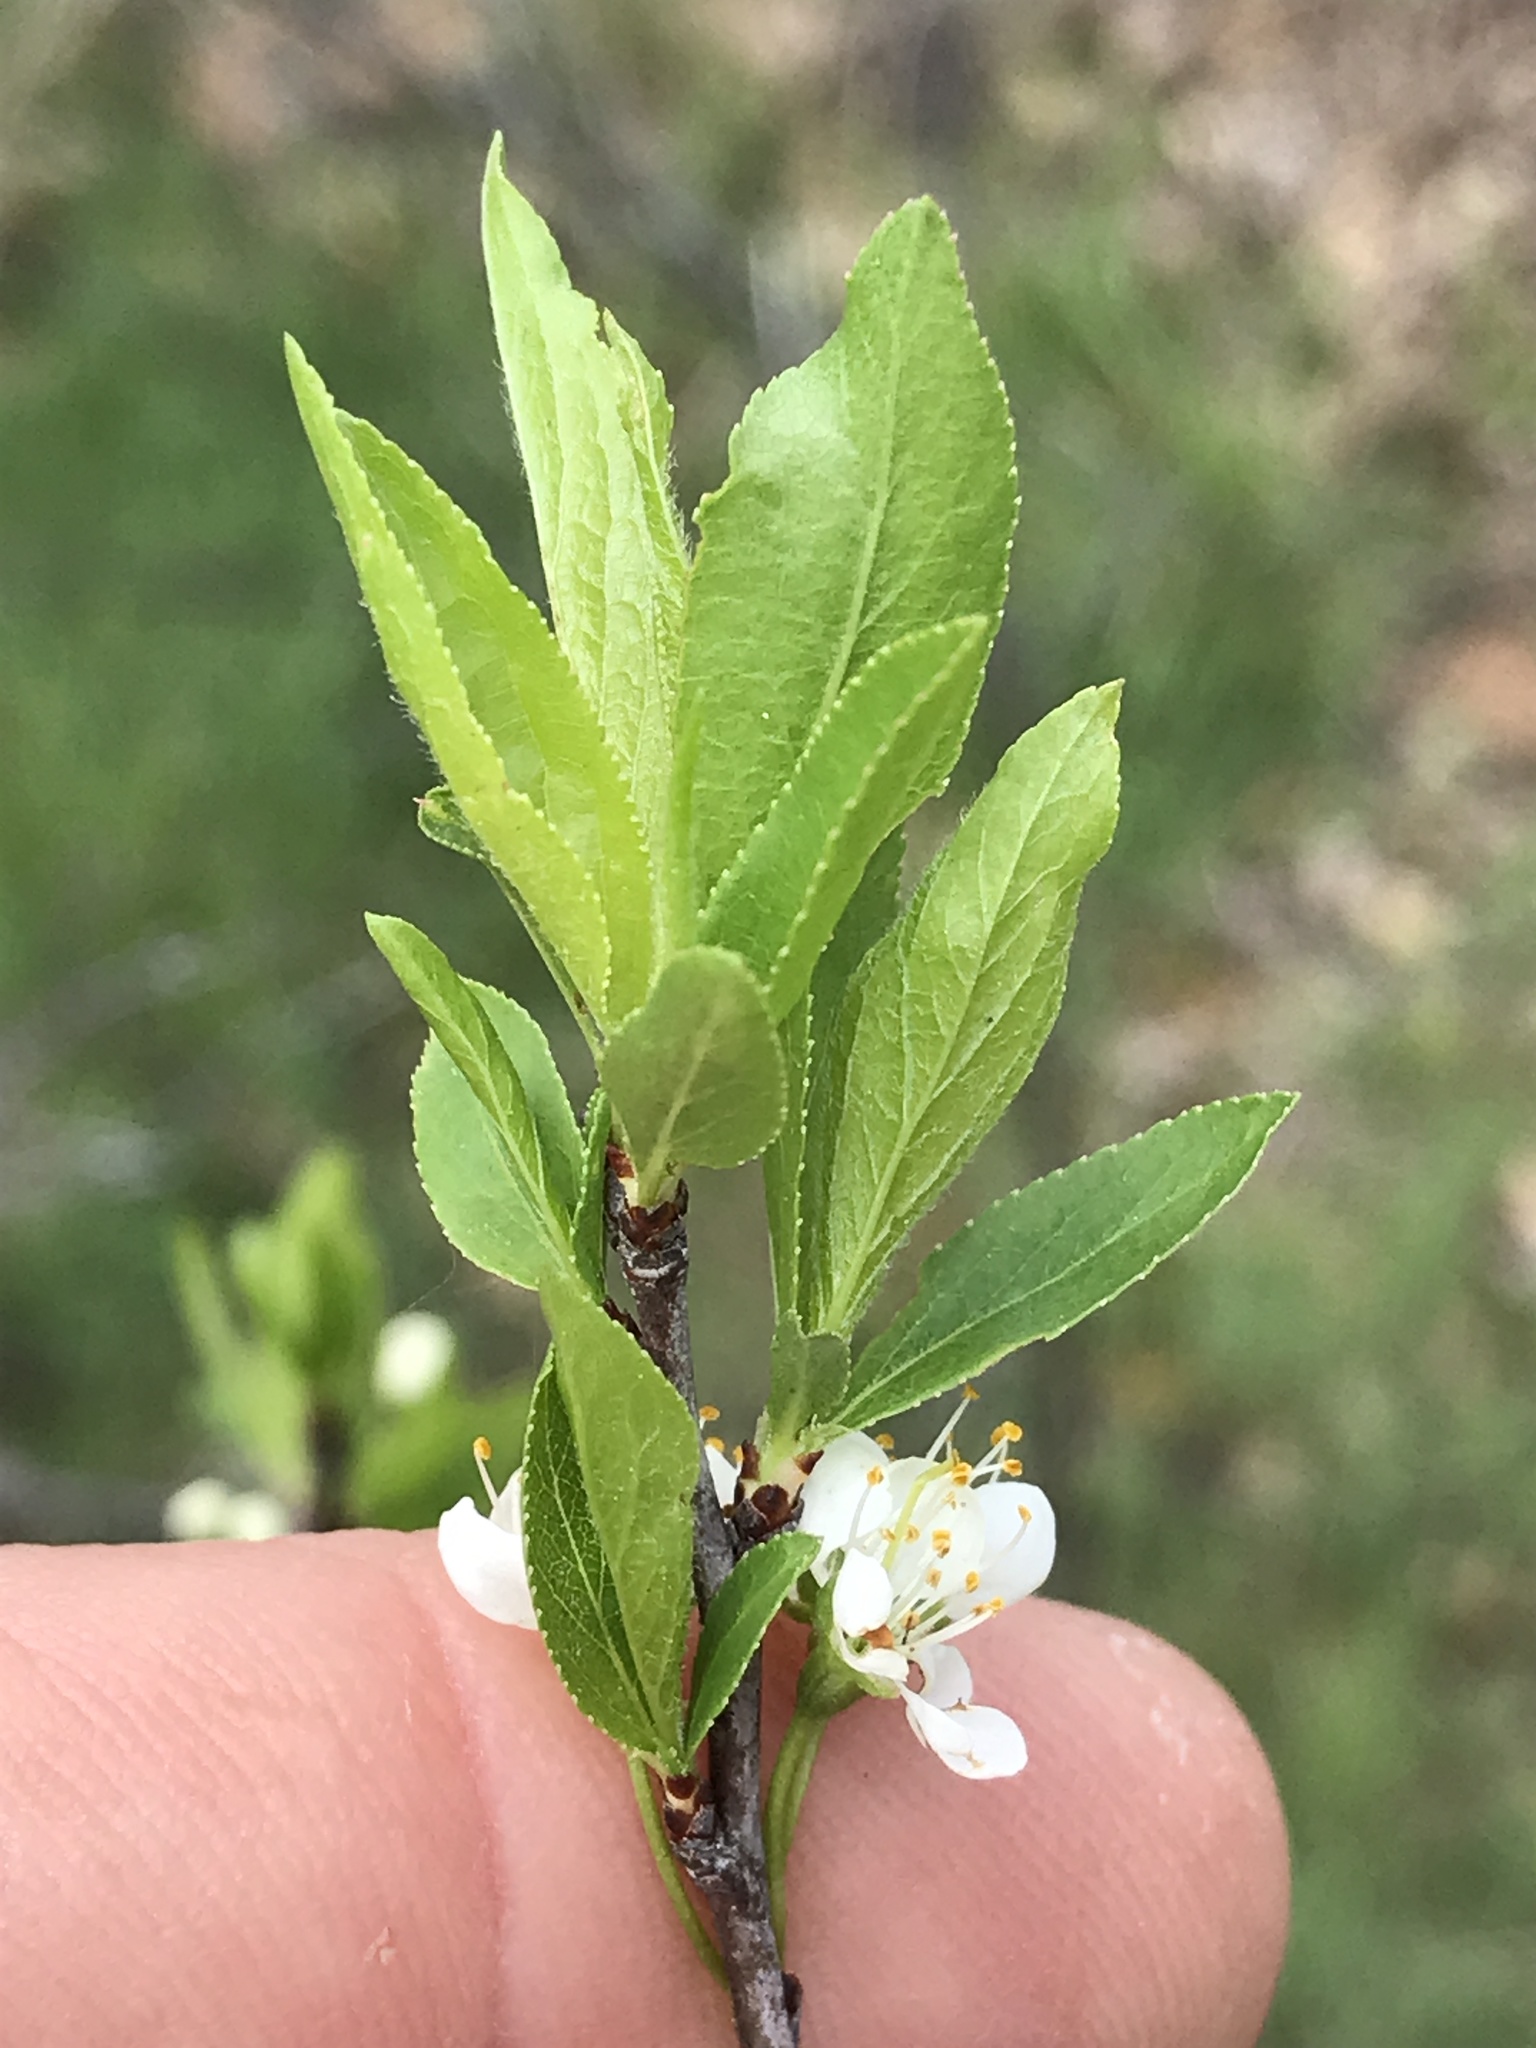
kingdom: Plantae
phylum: Tracheophyta
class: Magnoliopsida
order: Rosales
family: Rosaceae
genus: Prunus
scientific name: Prunus rivularis
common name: Creek plum
